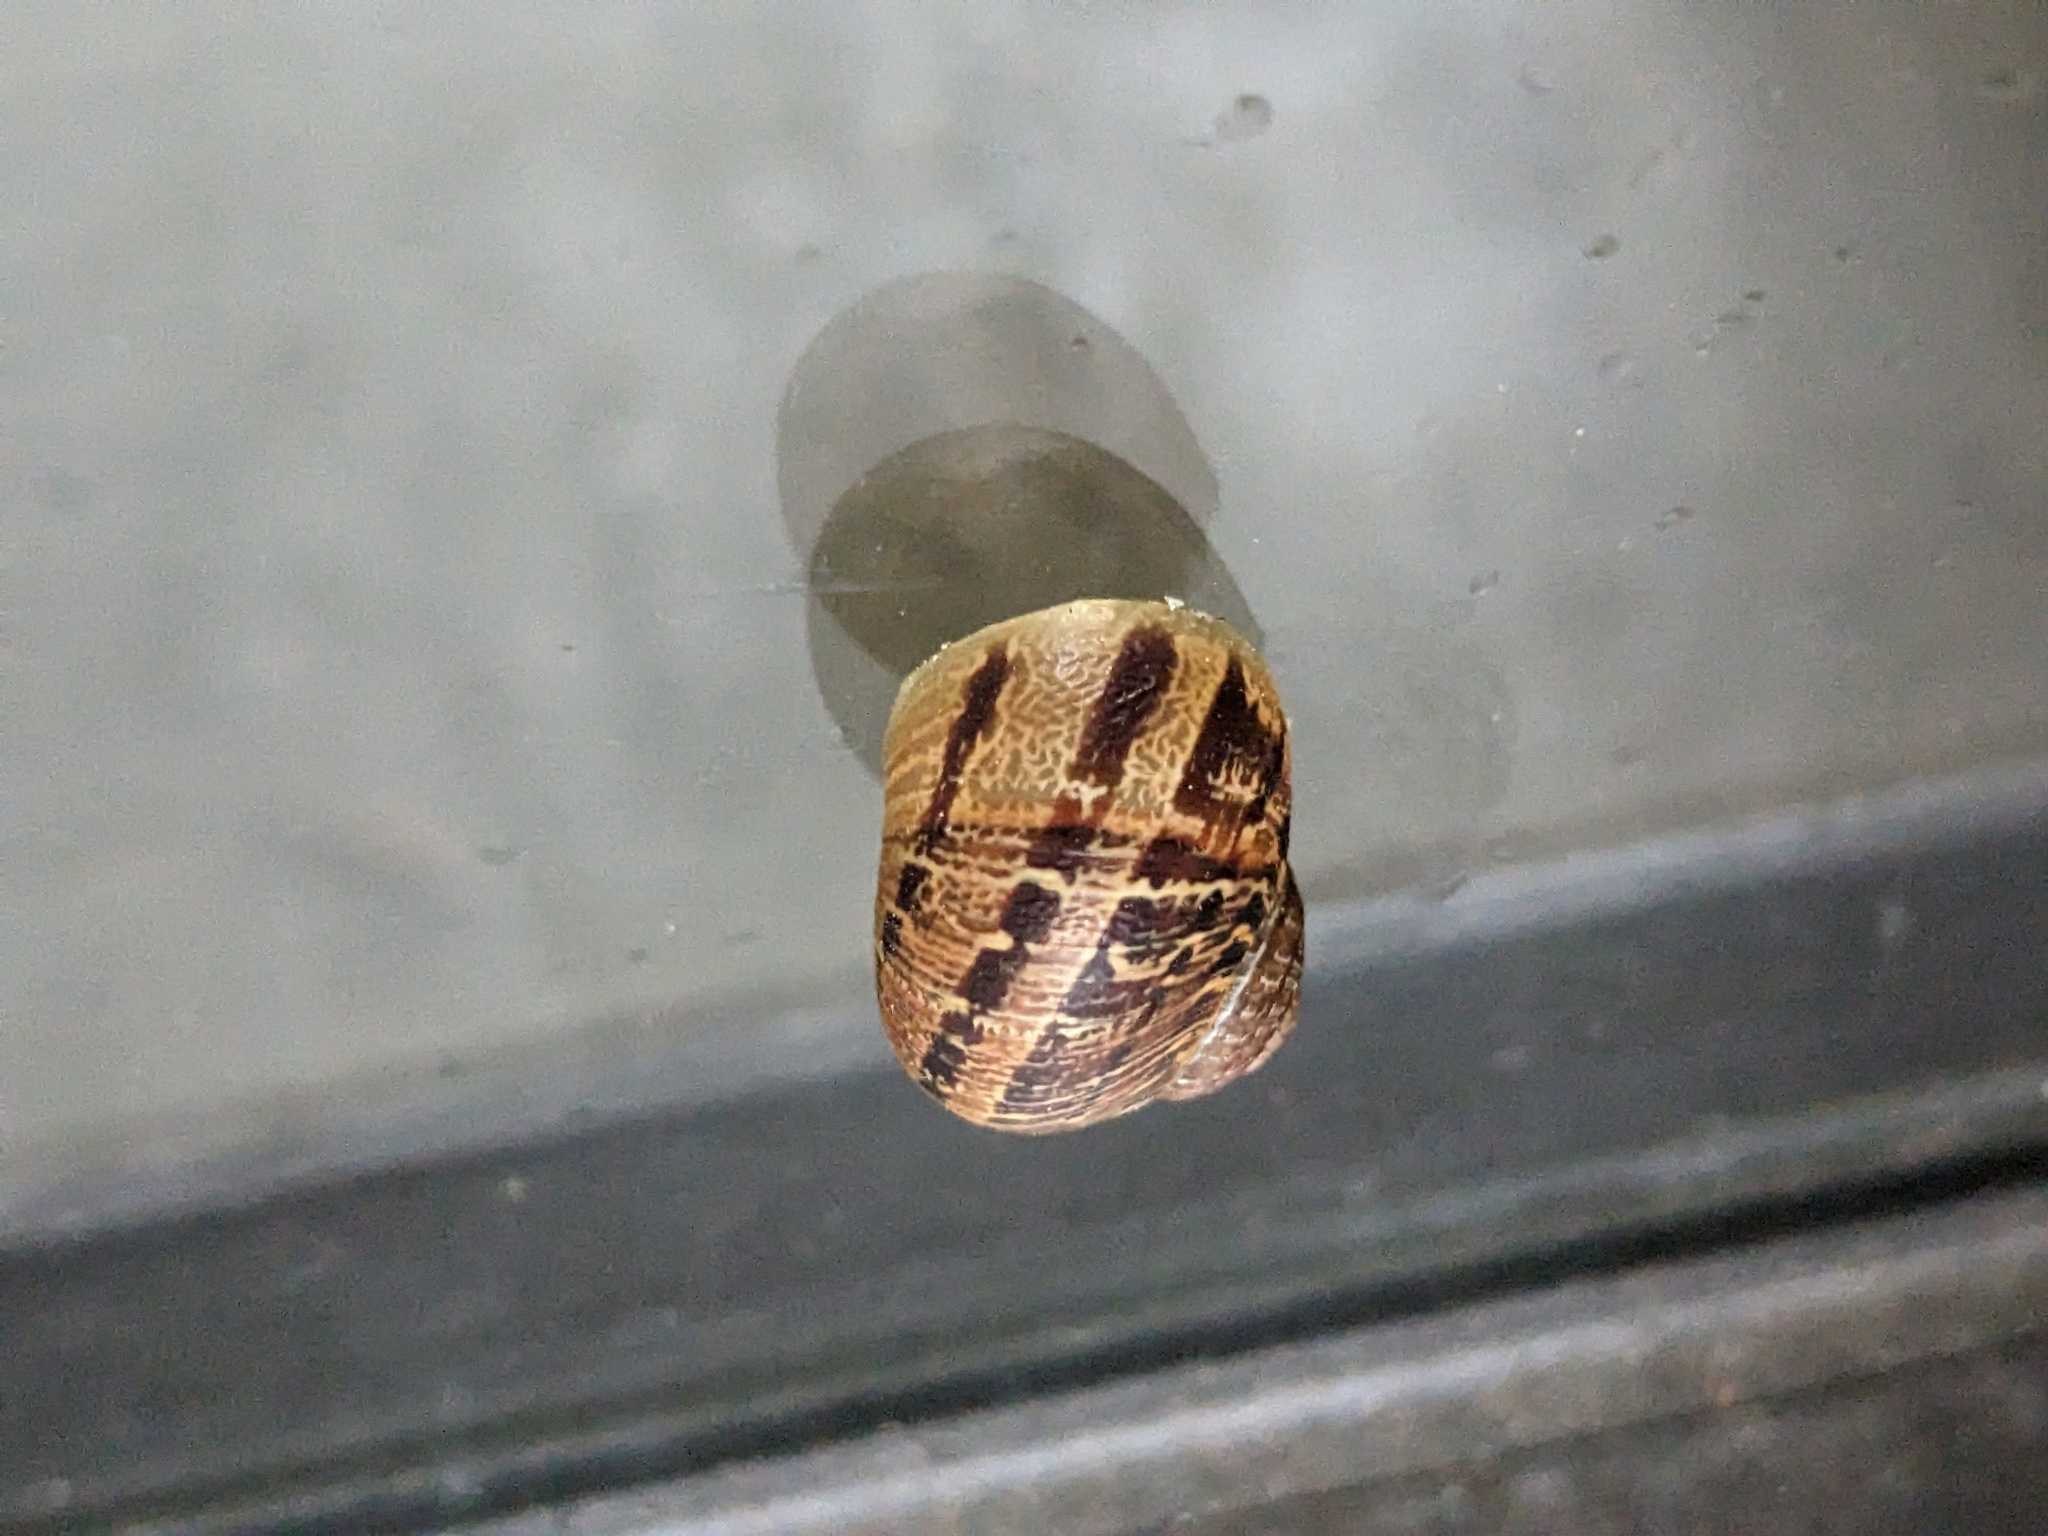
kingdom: Animalia
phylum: Mollusca
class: Gastropoda
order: Stylommatophora
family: Helicidae
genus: Cornu
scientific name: Cornu aspersum
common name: Brown garden snail
